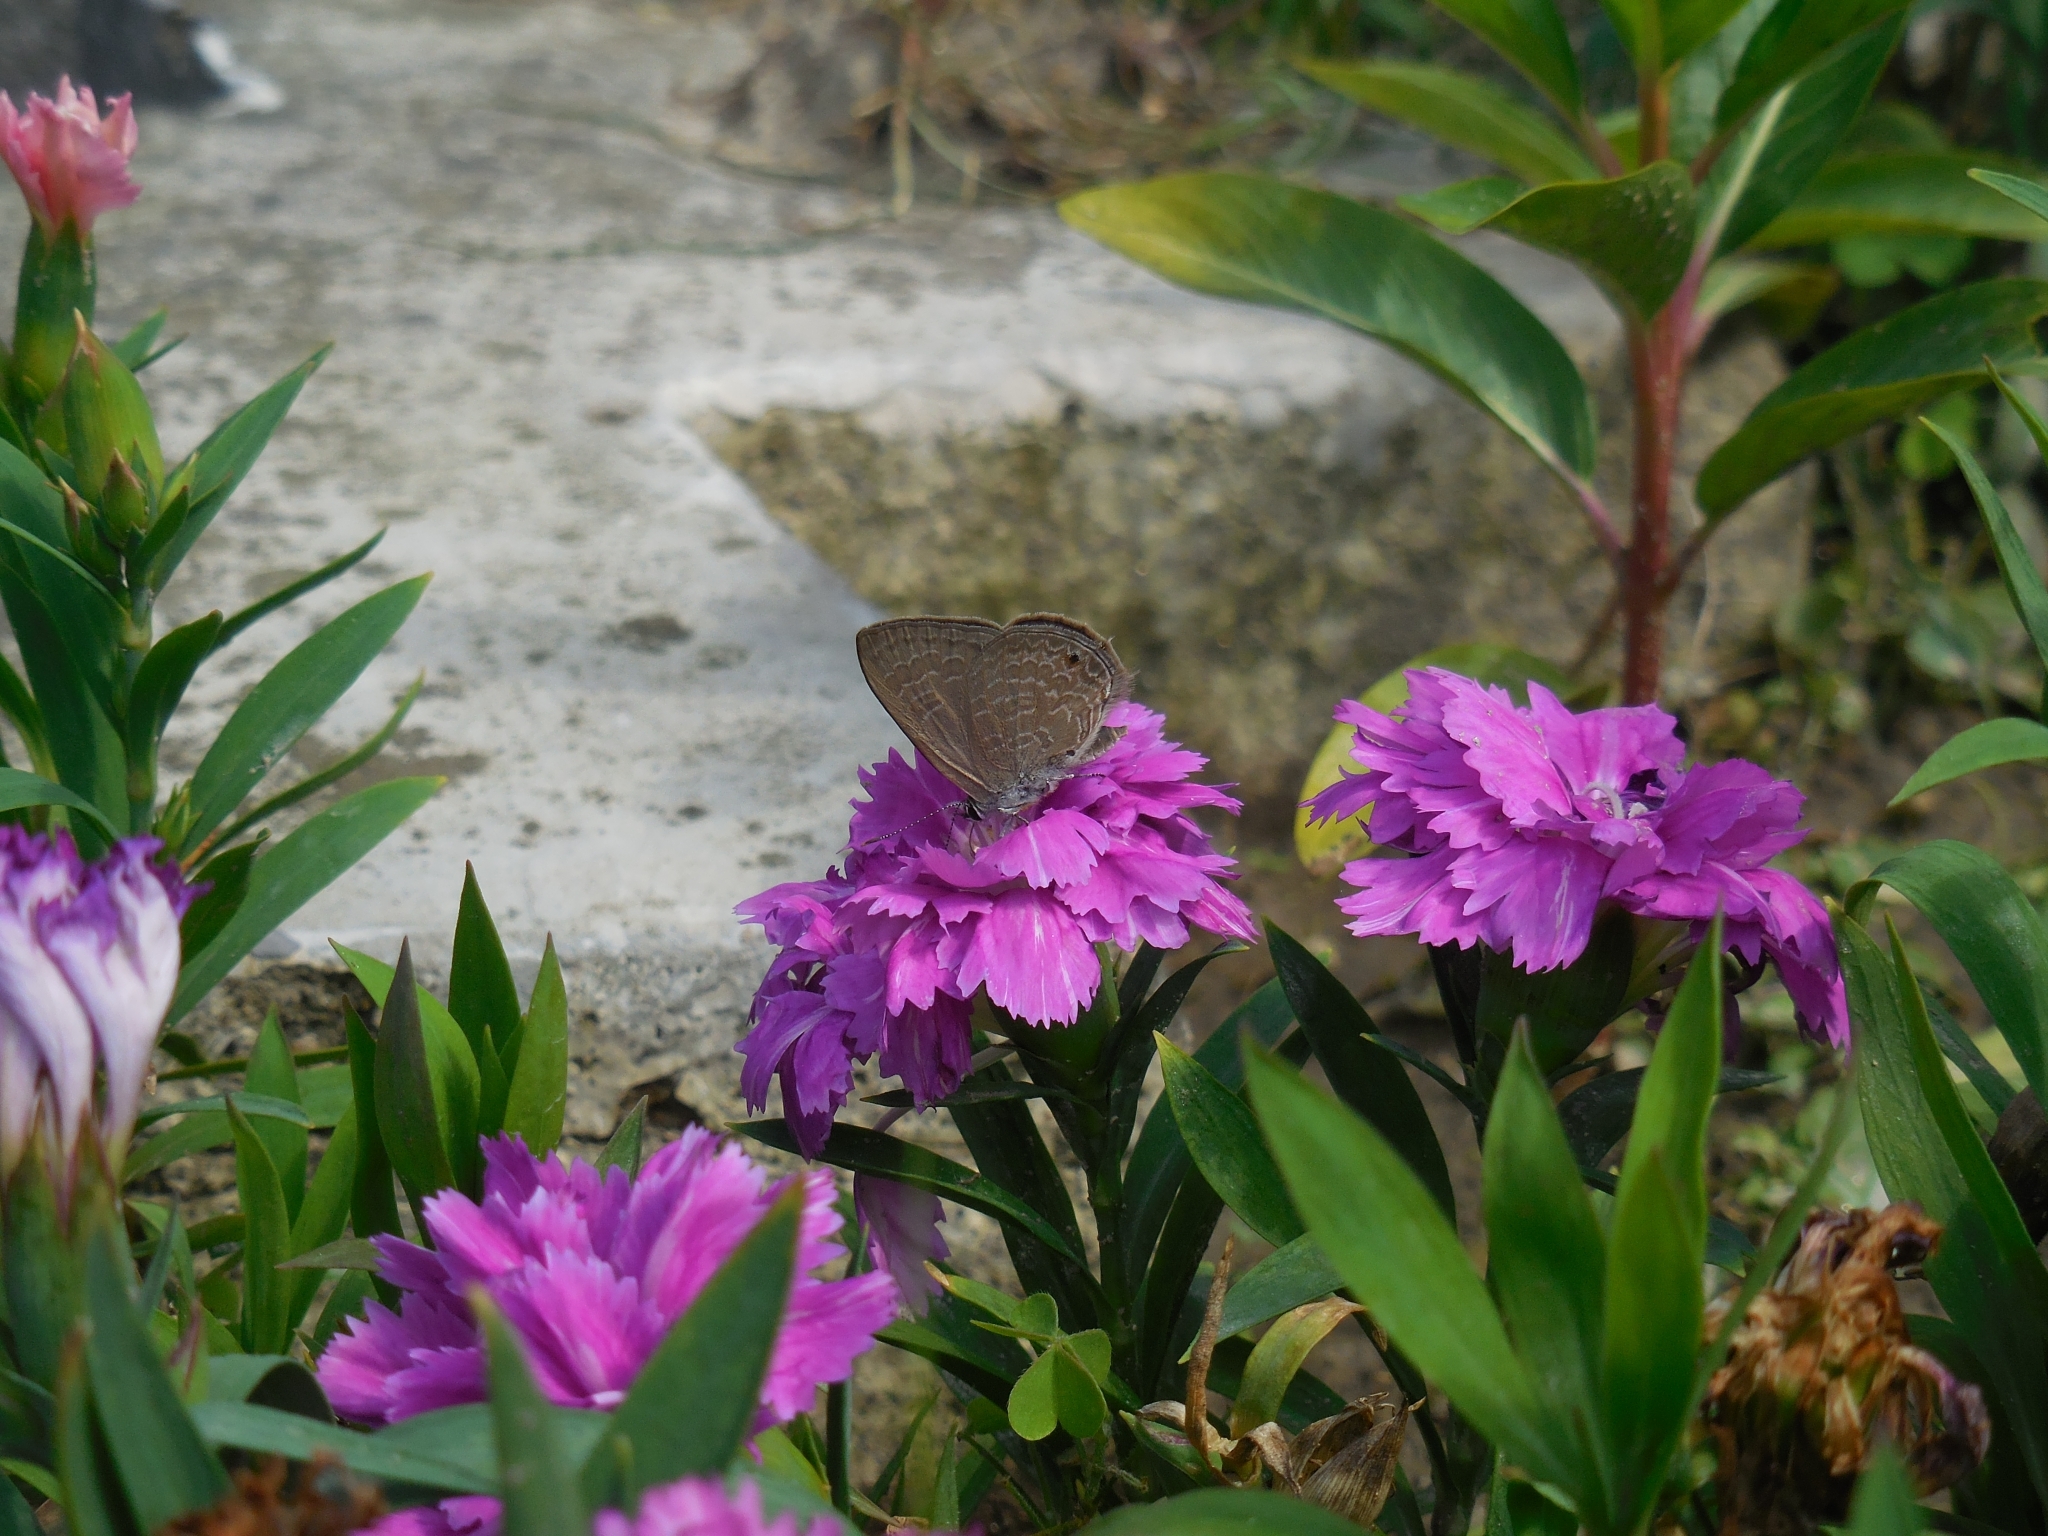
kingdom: Animalia
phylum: Arthropoda
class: Insecta
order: Lepidoptera
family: Lycaenidae
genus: Anthene
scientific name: Anthene emolus
